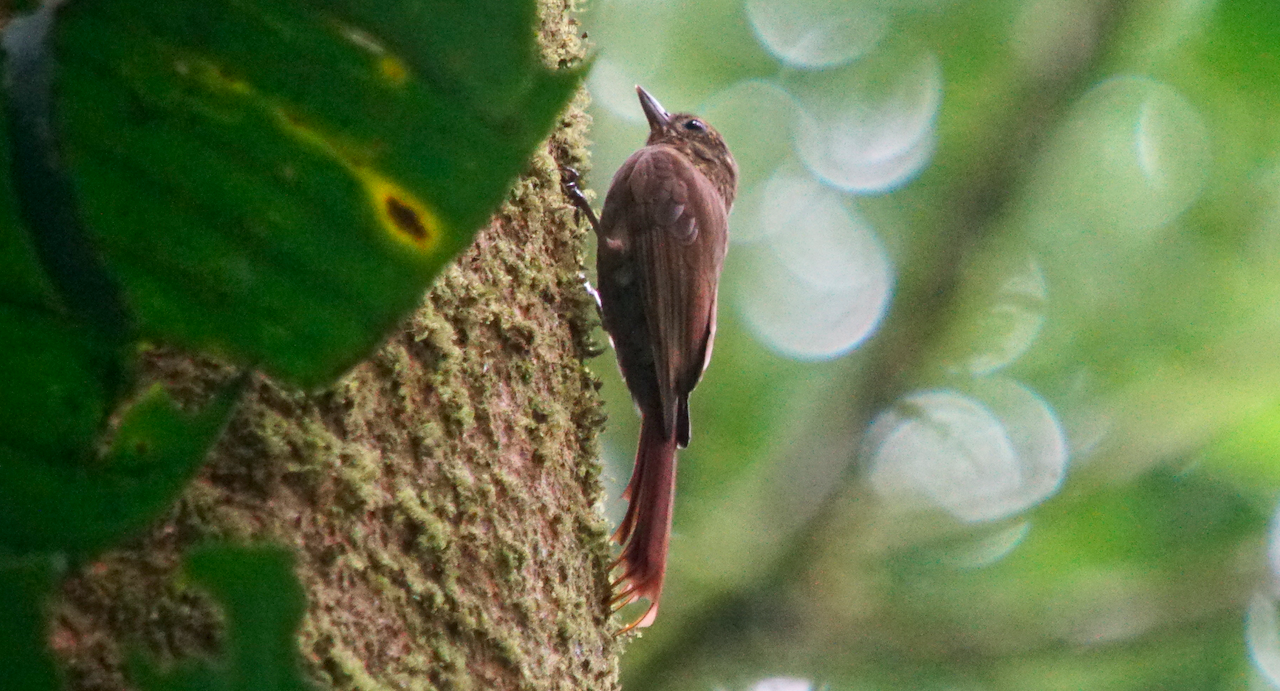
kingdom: Animalia
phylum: Chordata
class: Aves
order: Passeriformes
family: Furnariidae
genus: Glyphorynchus
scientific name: Glyphorynchus spirurus
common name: Wedge-billed woodcreeper
